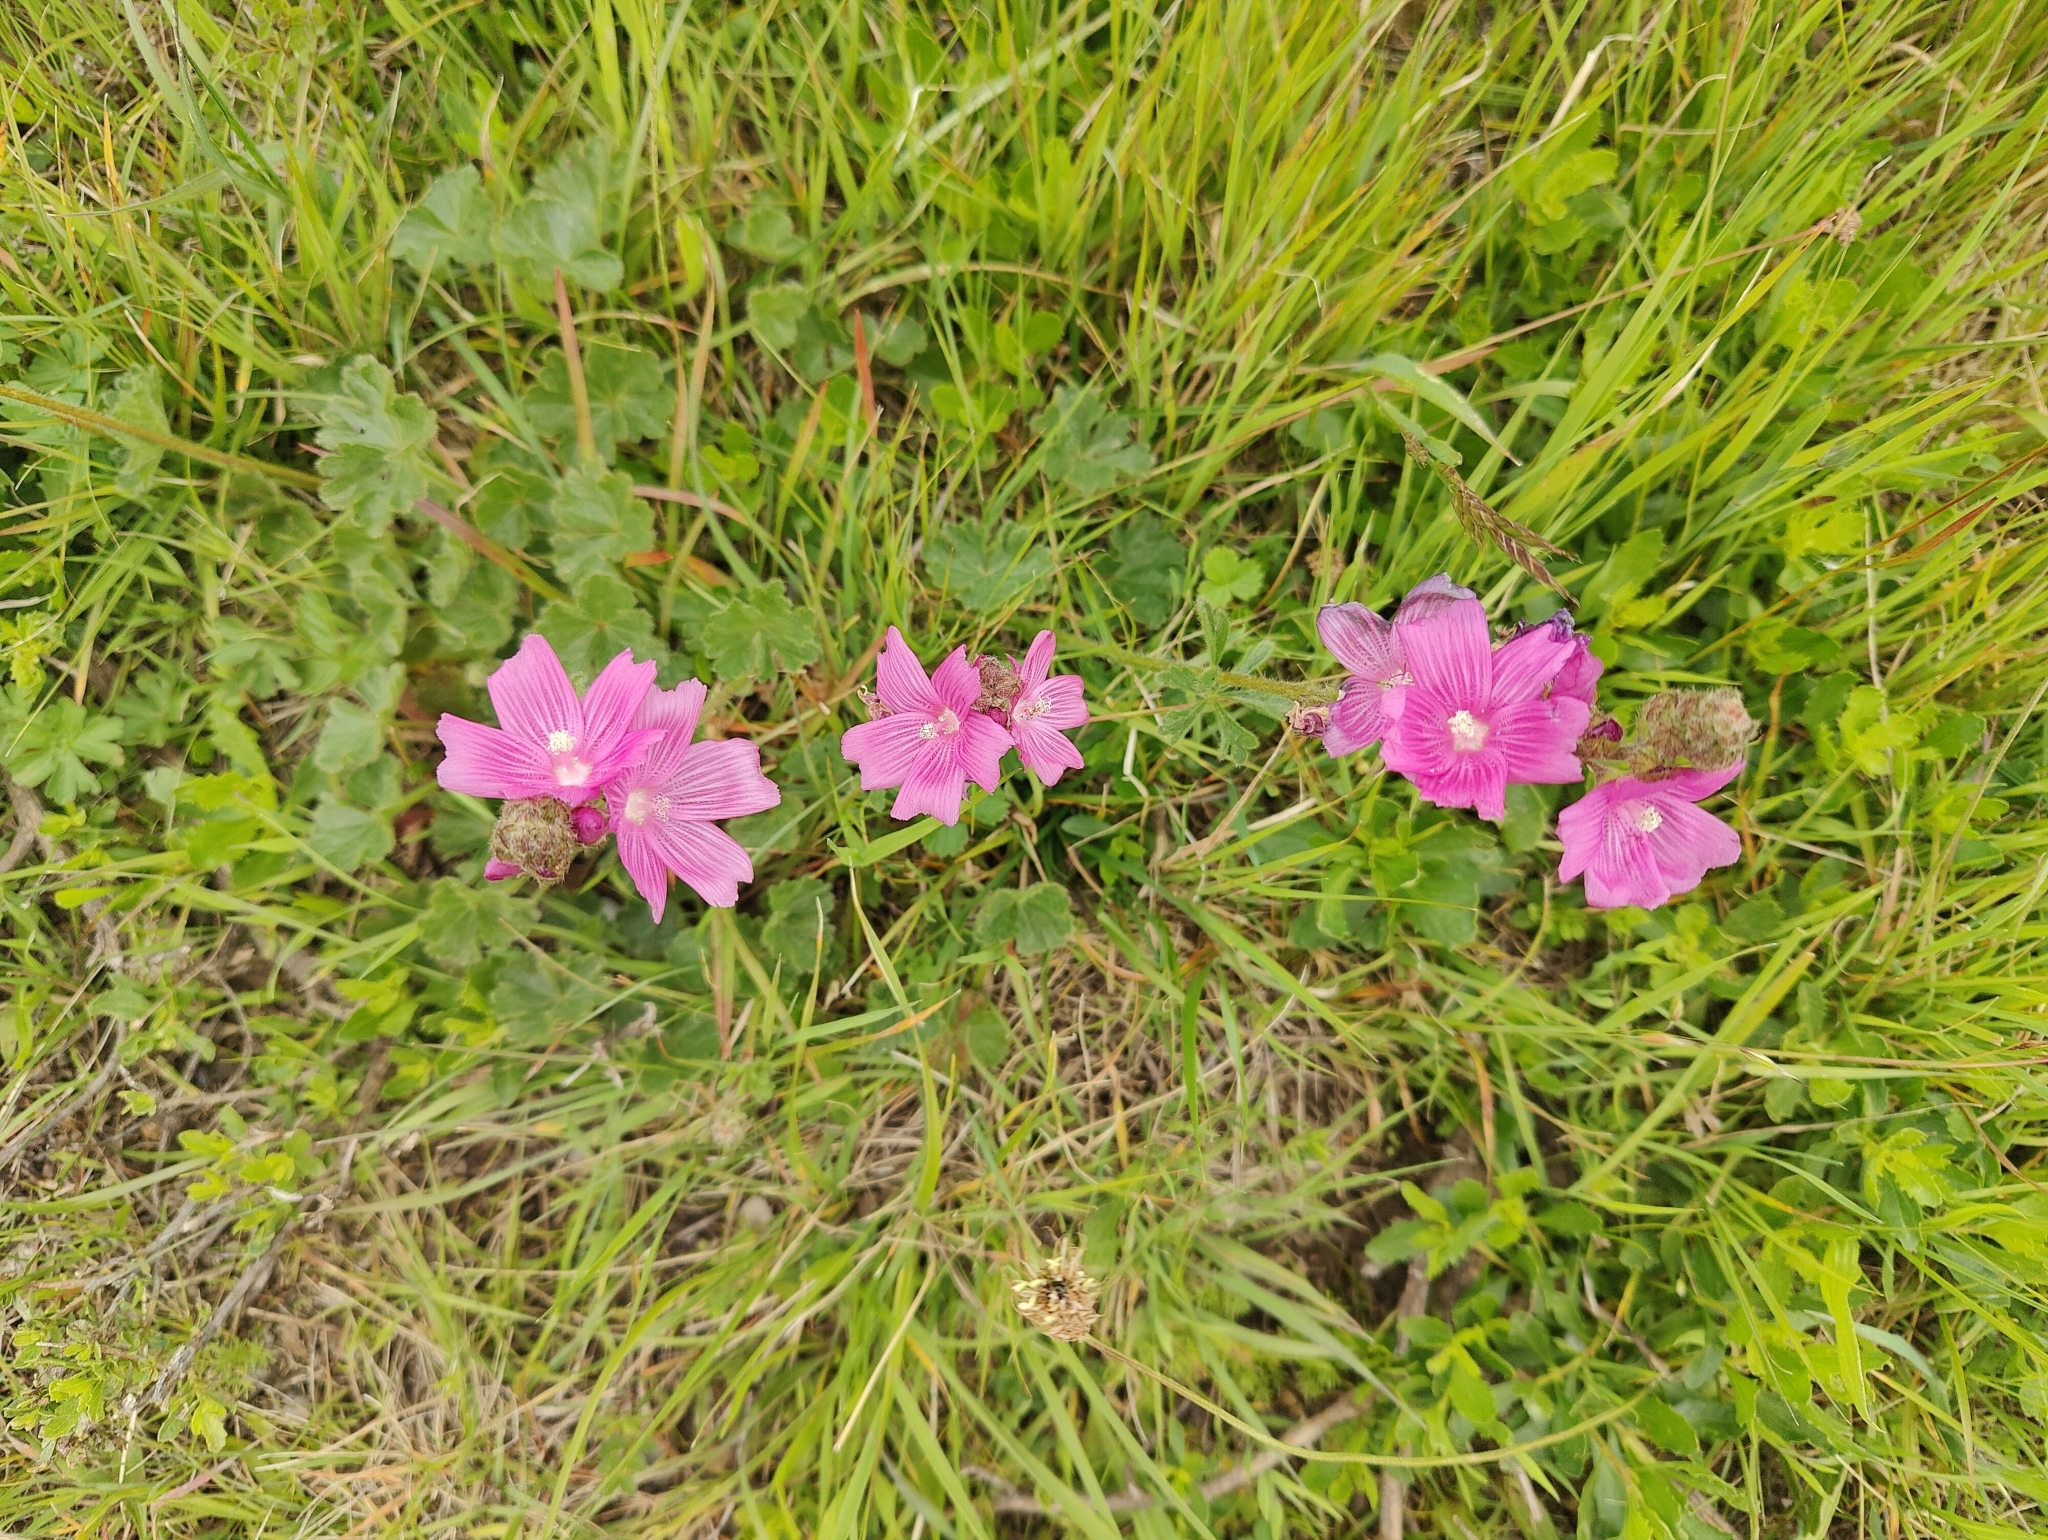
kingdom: Plantae
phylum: Tracheophyta
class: Magnoliopsida
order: Malvales
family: Malvaceae
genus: Sidalcea
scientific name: Sidalcea malviflora
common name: Greek mallow
